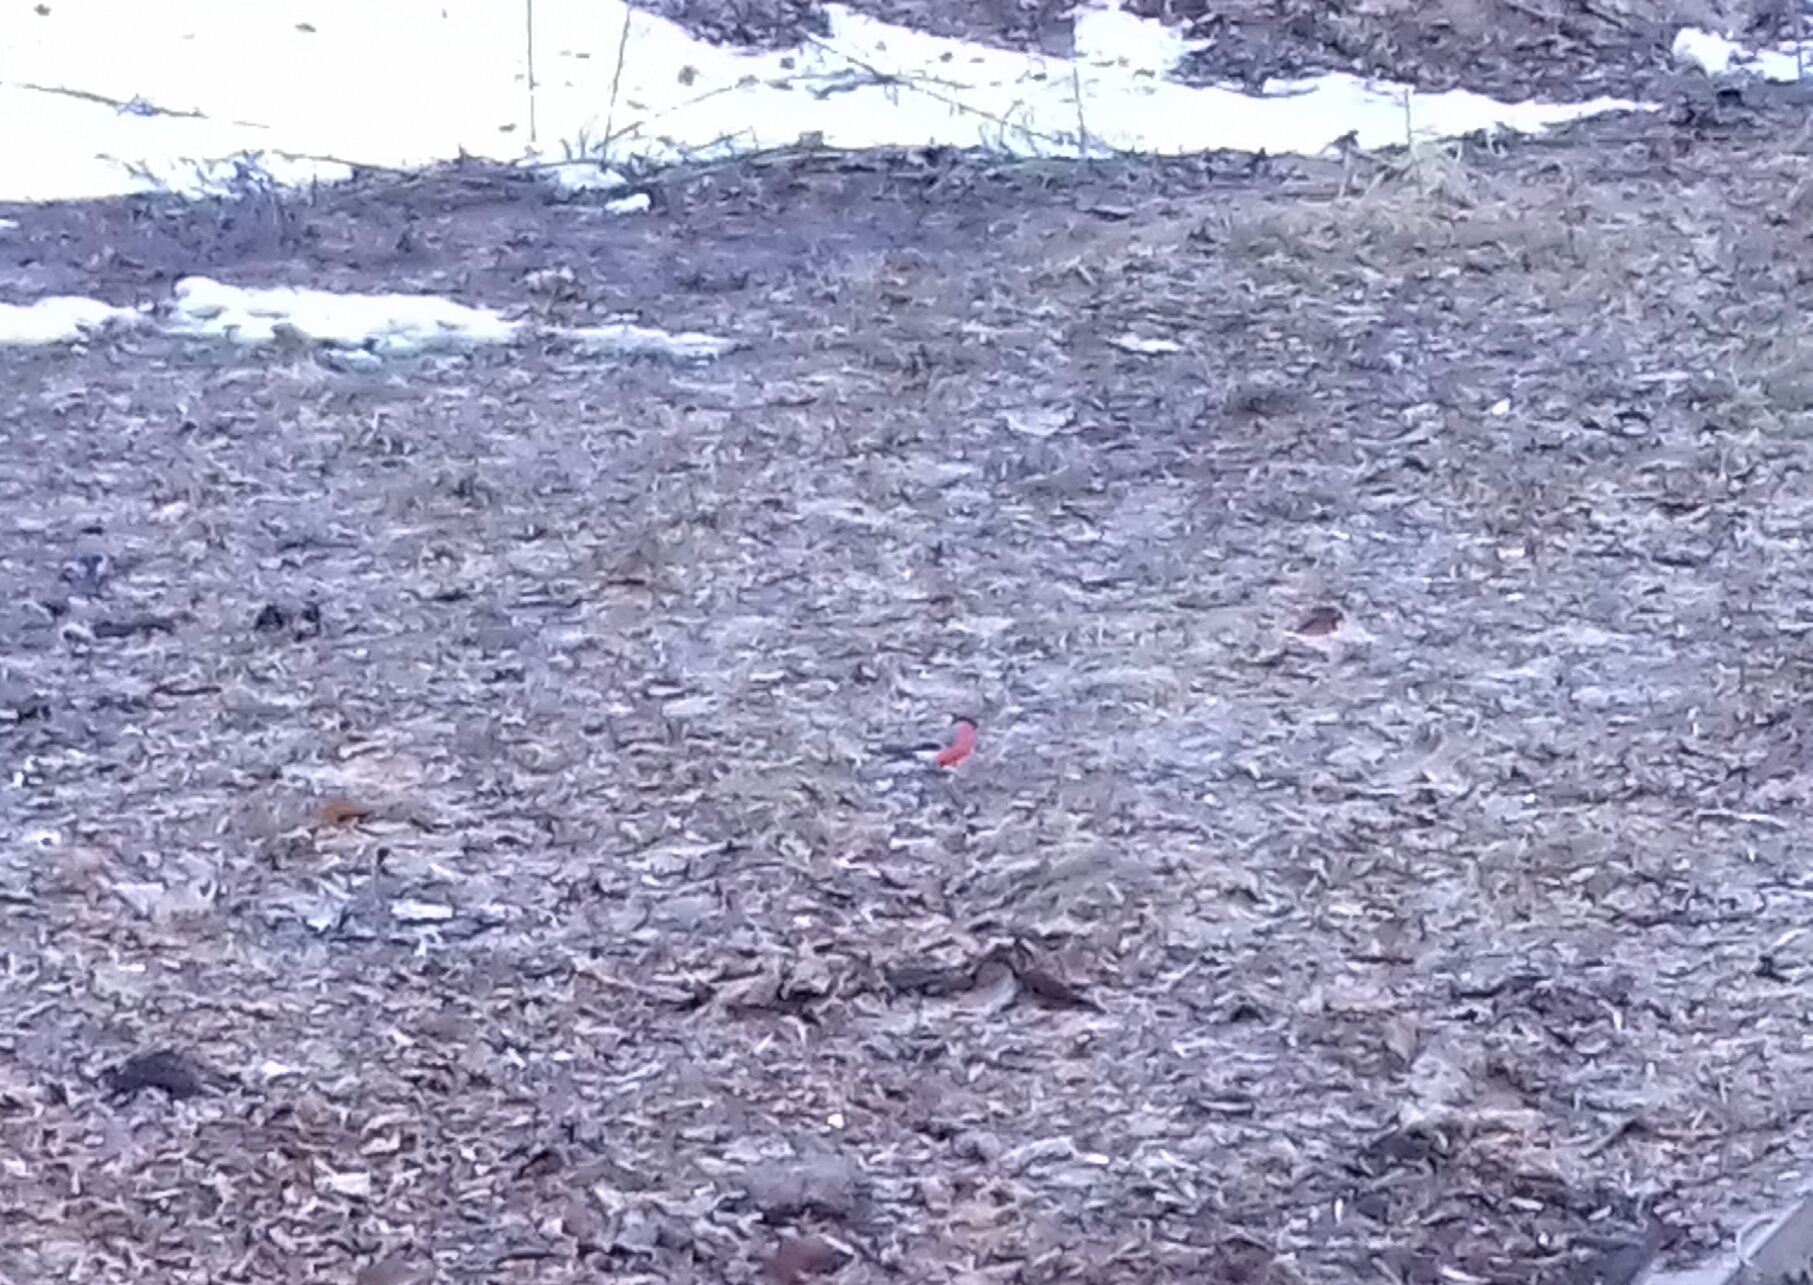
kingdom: Animalia
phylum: Chordata
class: Aves
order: Passeriformes
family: Fringillidae
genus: Pyrrhula
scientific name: Pyrrhula pyrrhula
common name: Eurasian bullfinch
